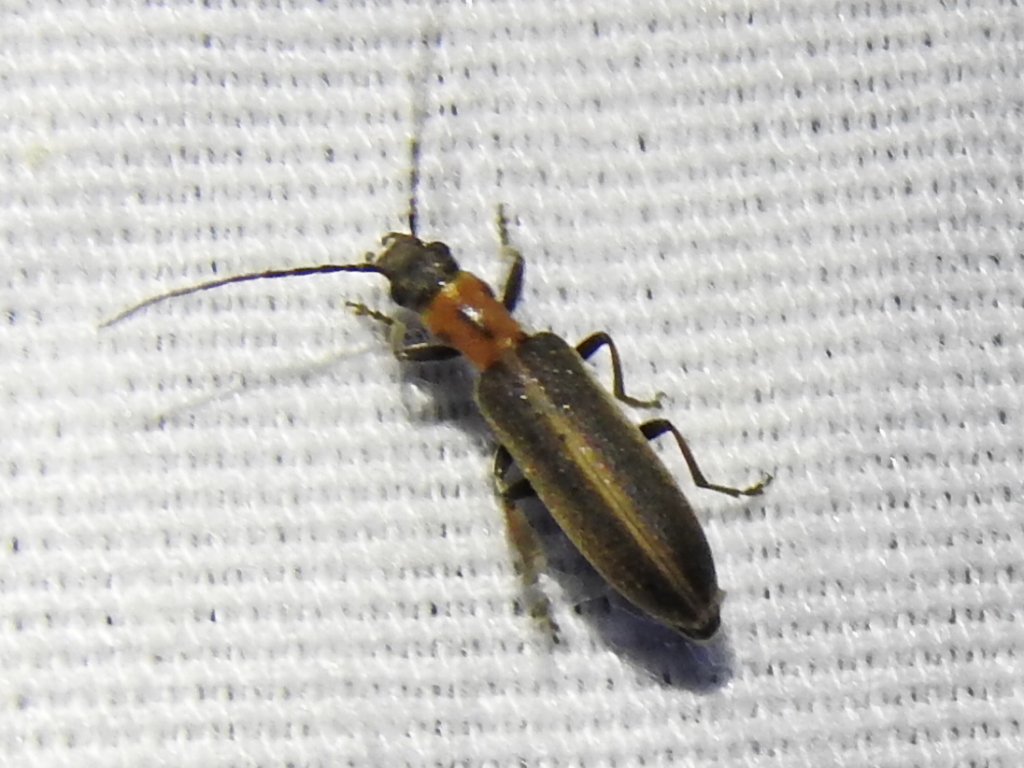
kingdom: Animalia
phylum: Arthropoda
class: Insecta
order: Coleoptera
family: Oedemeridae
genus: Oxycopis
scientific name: Oxycopis mimetica
